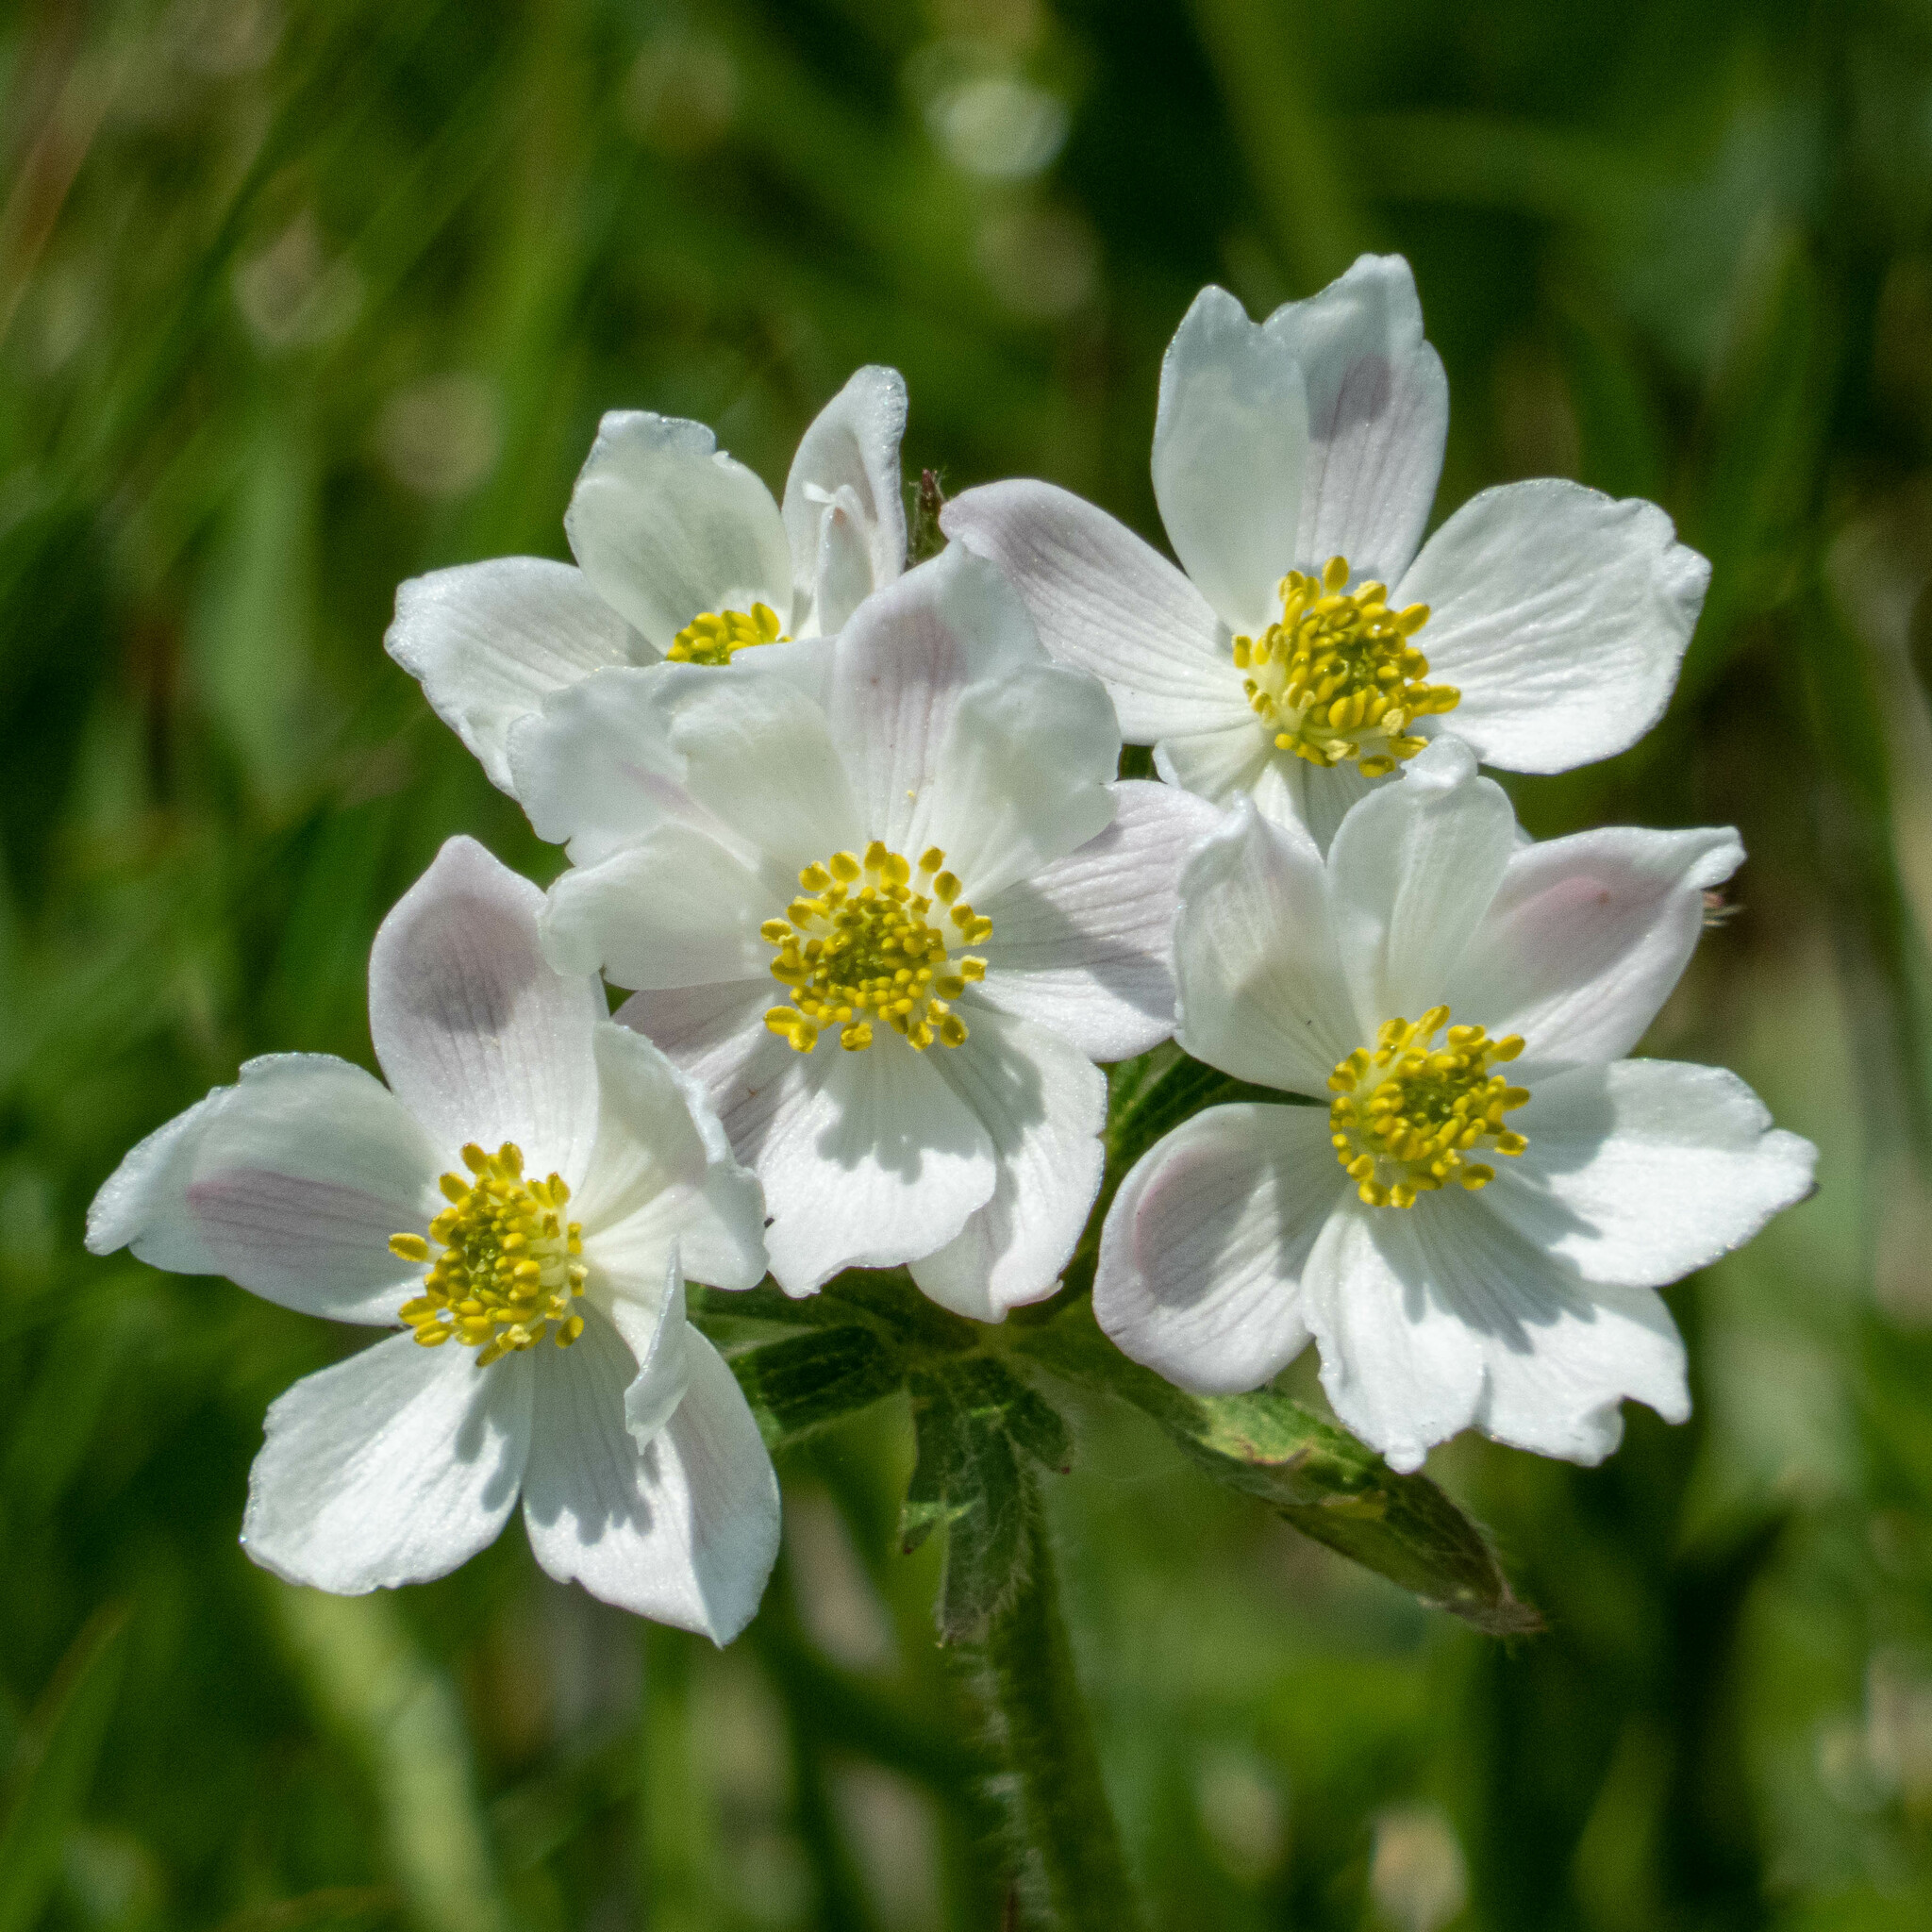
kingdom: Plantae
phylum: Tracheophyta
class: Magnoliopsida
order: Ranunculales
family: Ranunculaceae
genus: Anemonastrum
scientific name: Anemonastrum narcissiflorum
